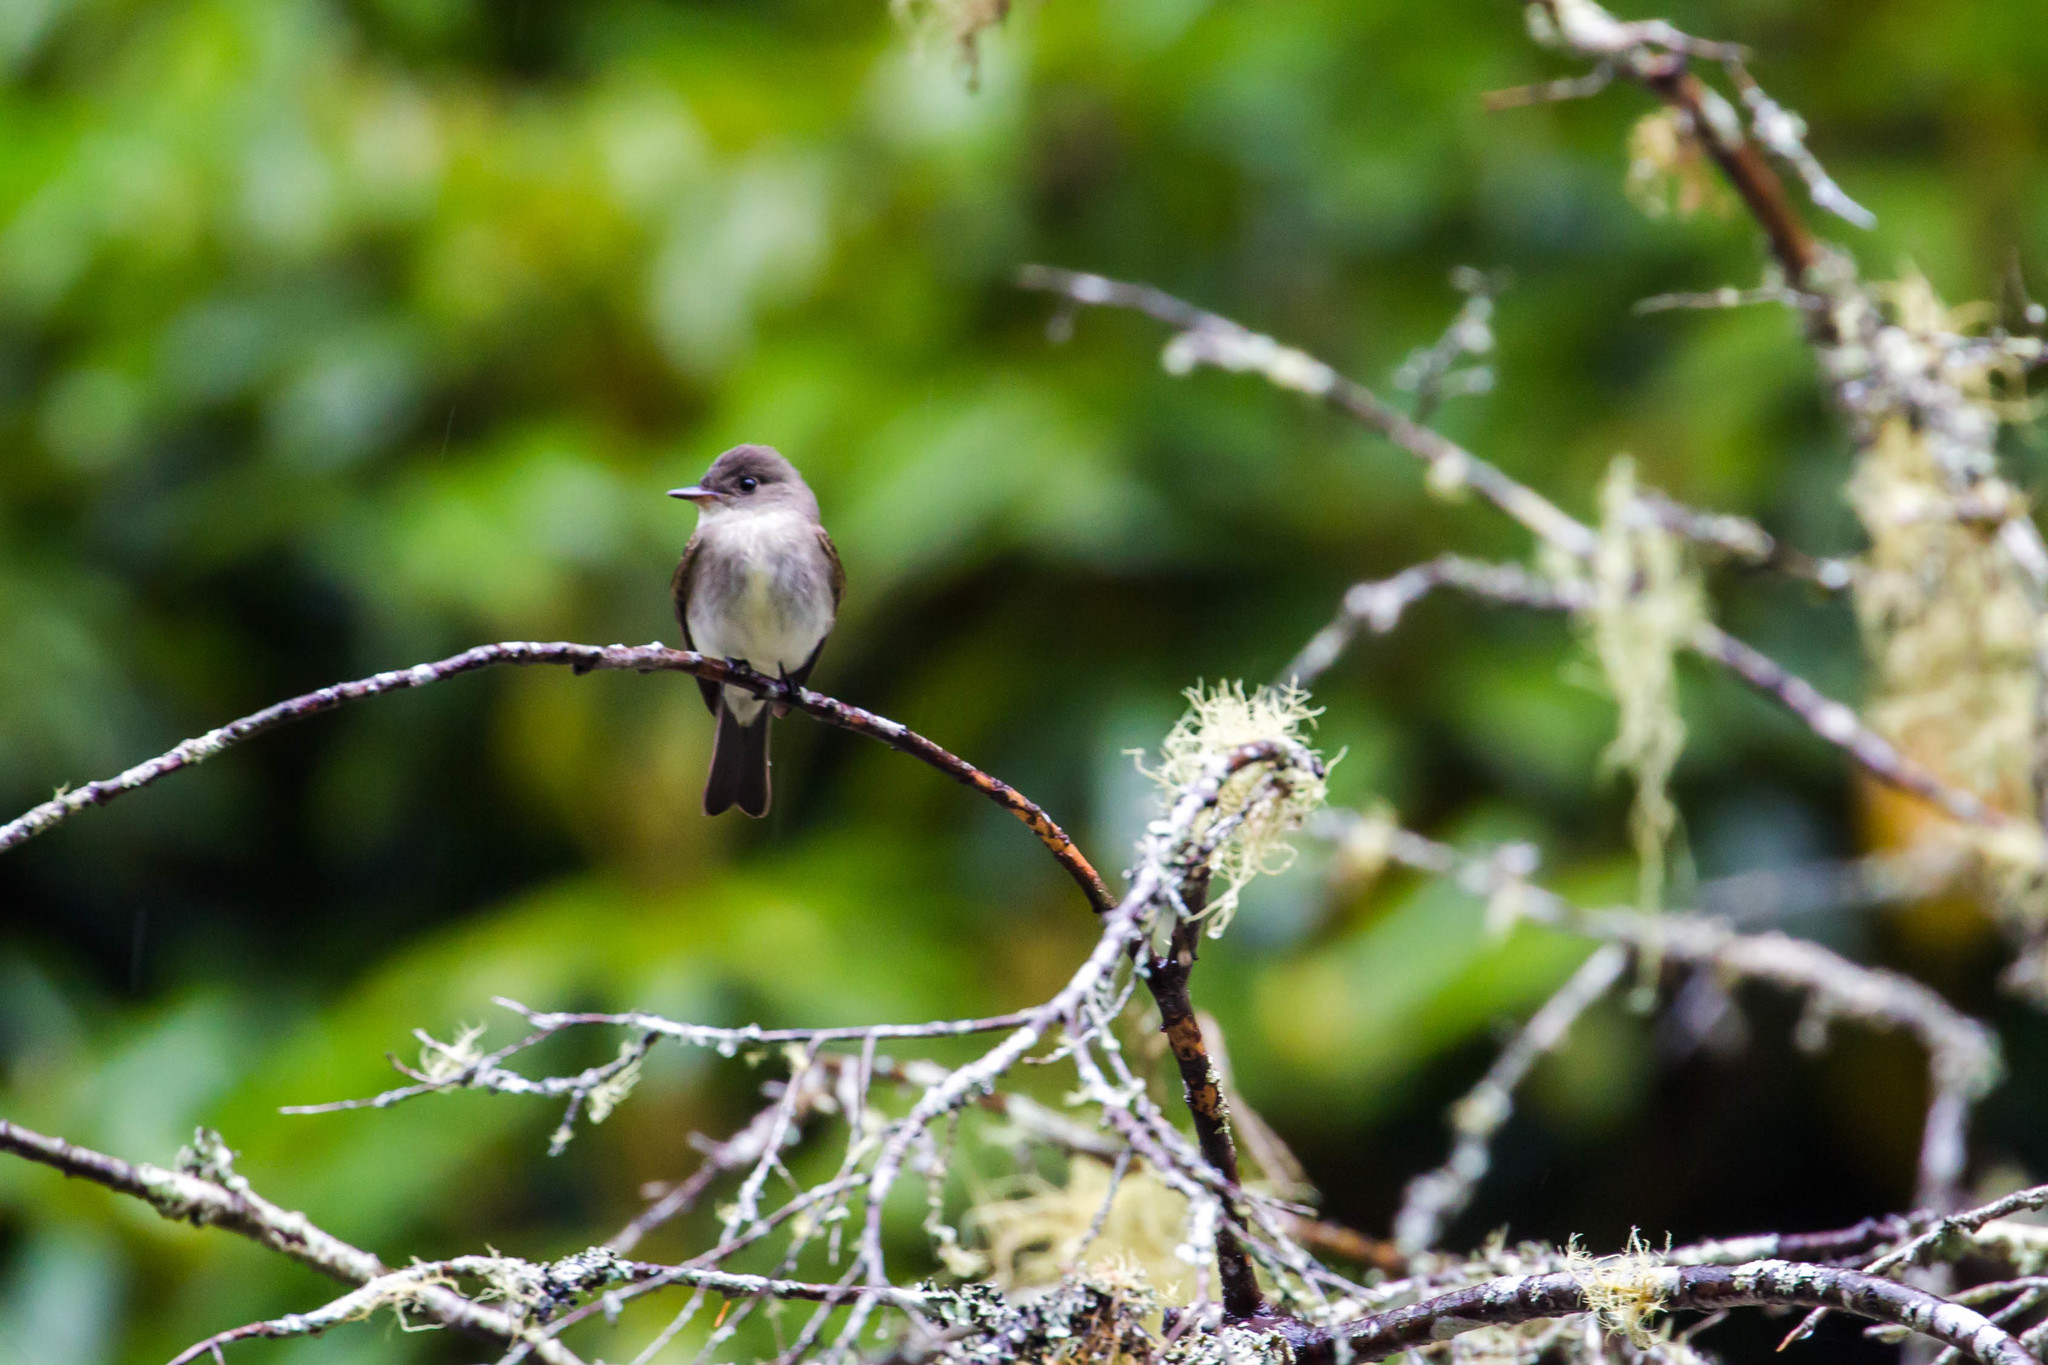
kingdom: Animalia
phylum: Chordata
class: Aves
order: Passeriformes
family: Tyrannidae
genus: Contopus
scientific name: Contopus virens
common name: Eastern wood-pewee
